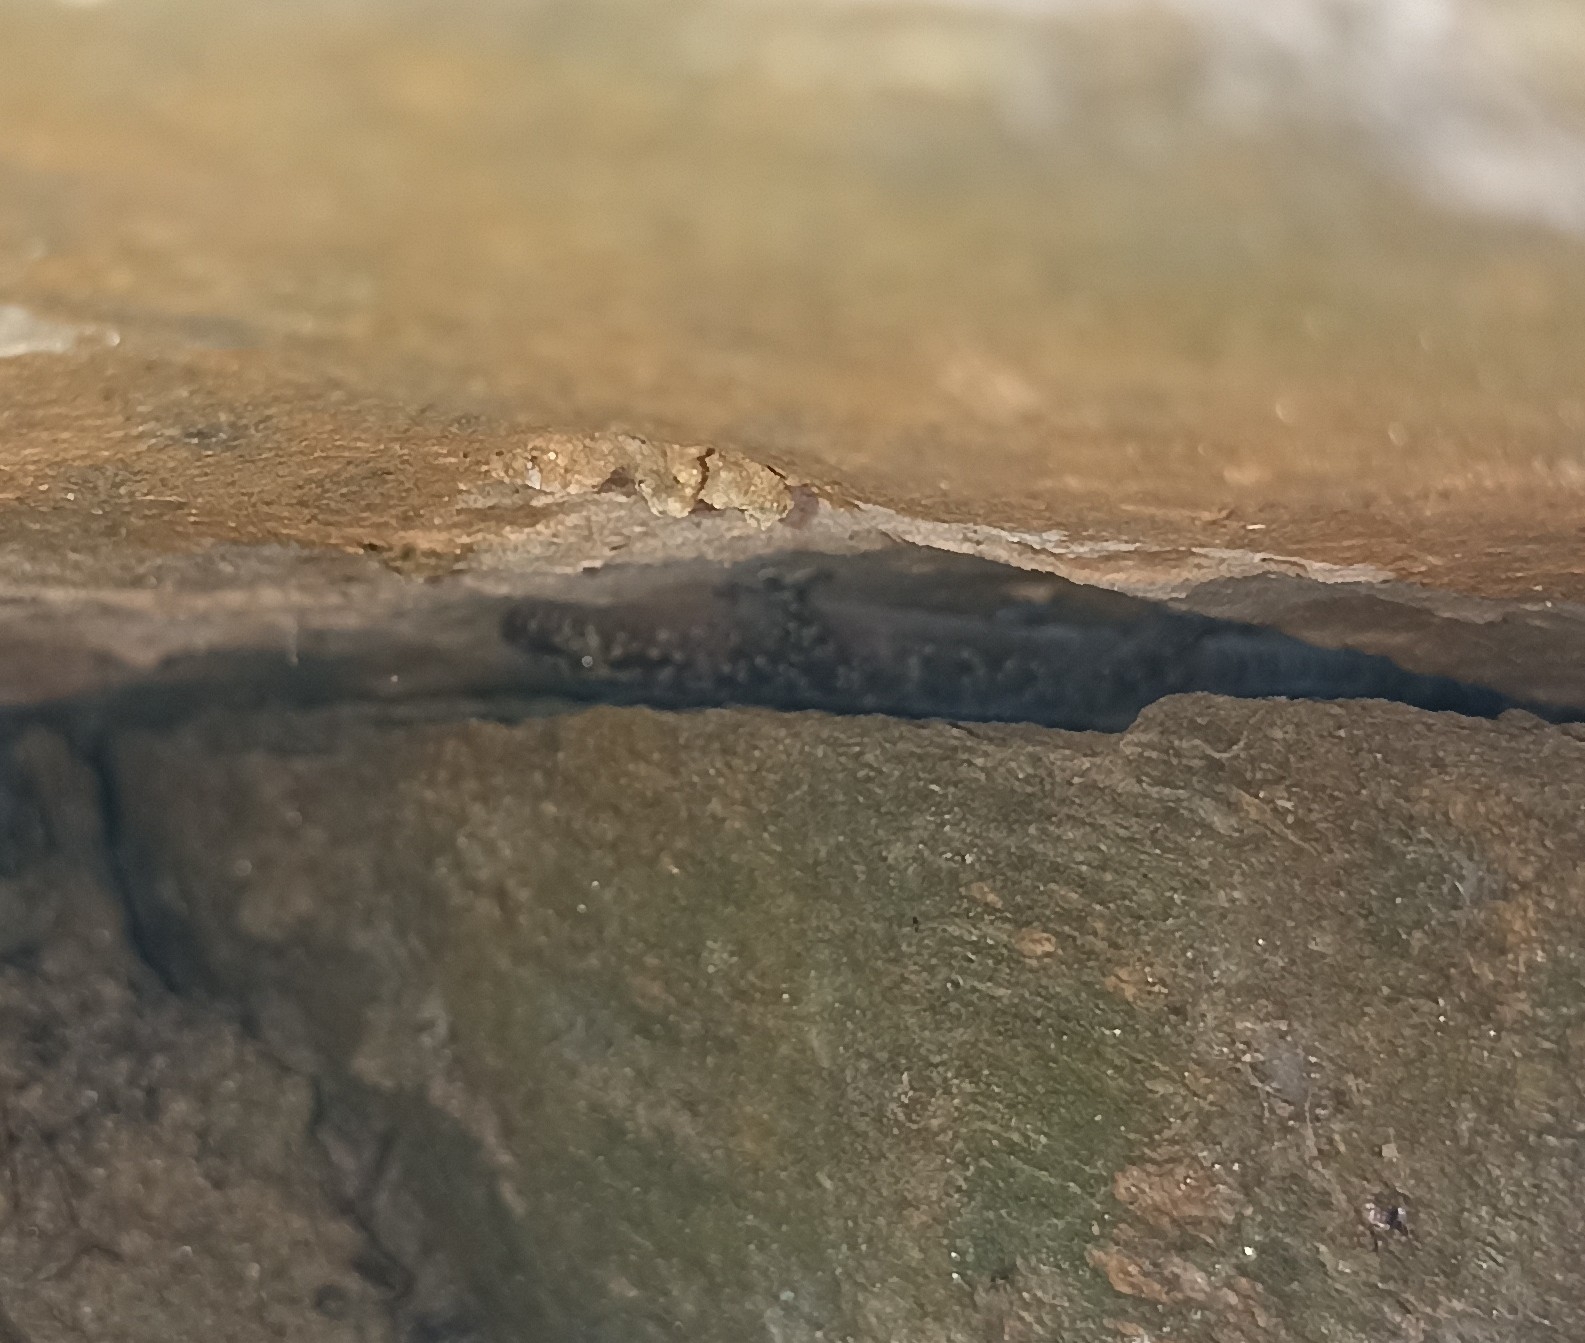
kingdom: Animalia
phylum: Chordata
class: Squamata
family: Gekkonidae
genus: Hemidactylus
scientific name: Hemidactylus turcicus
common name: Turkish gecko
